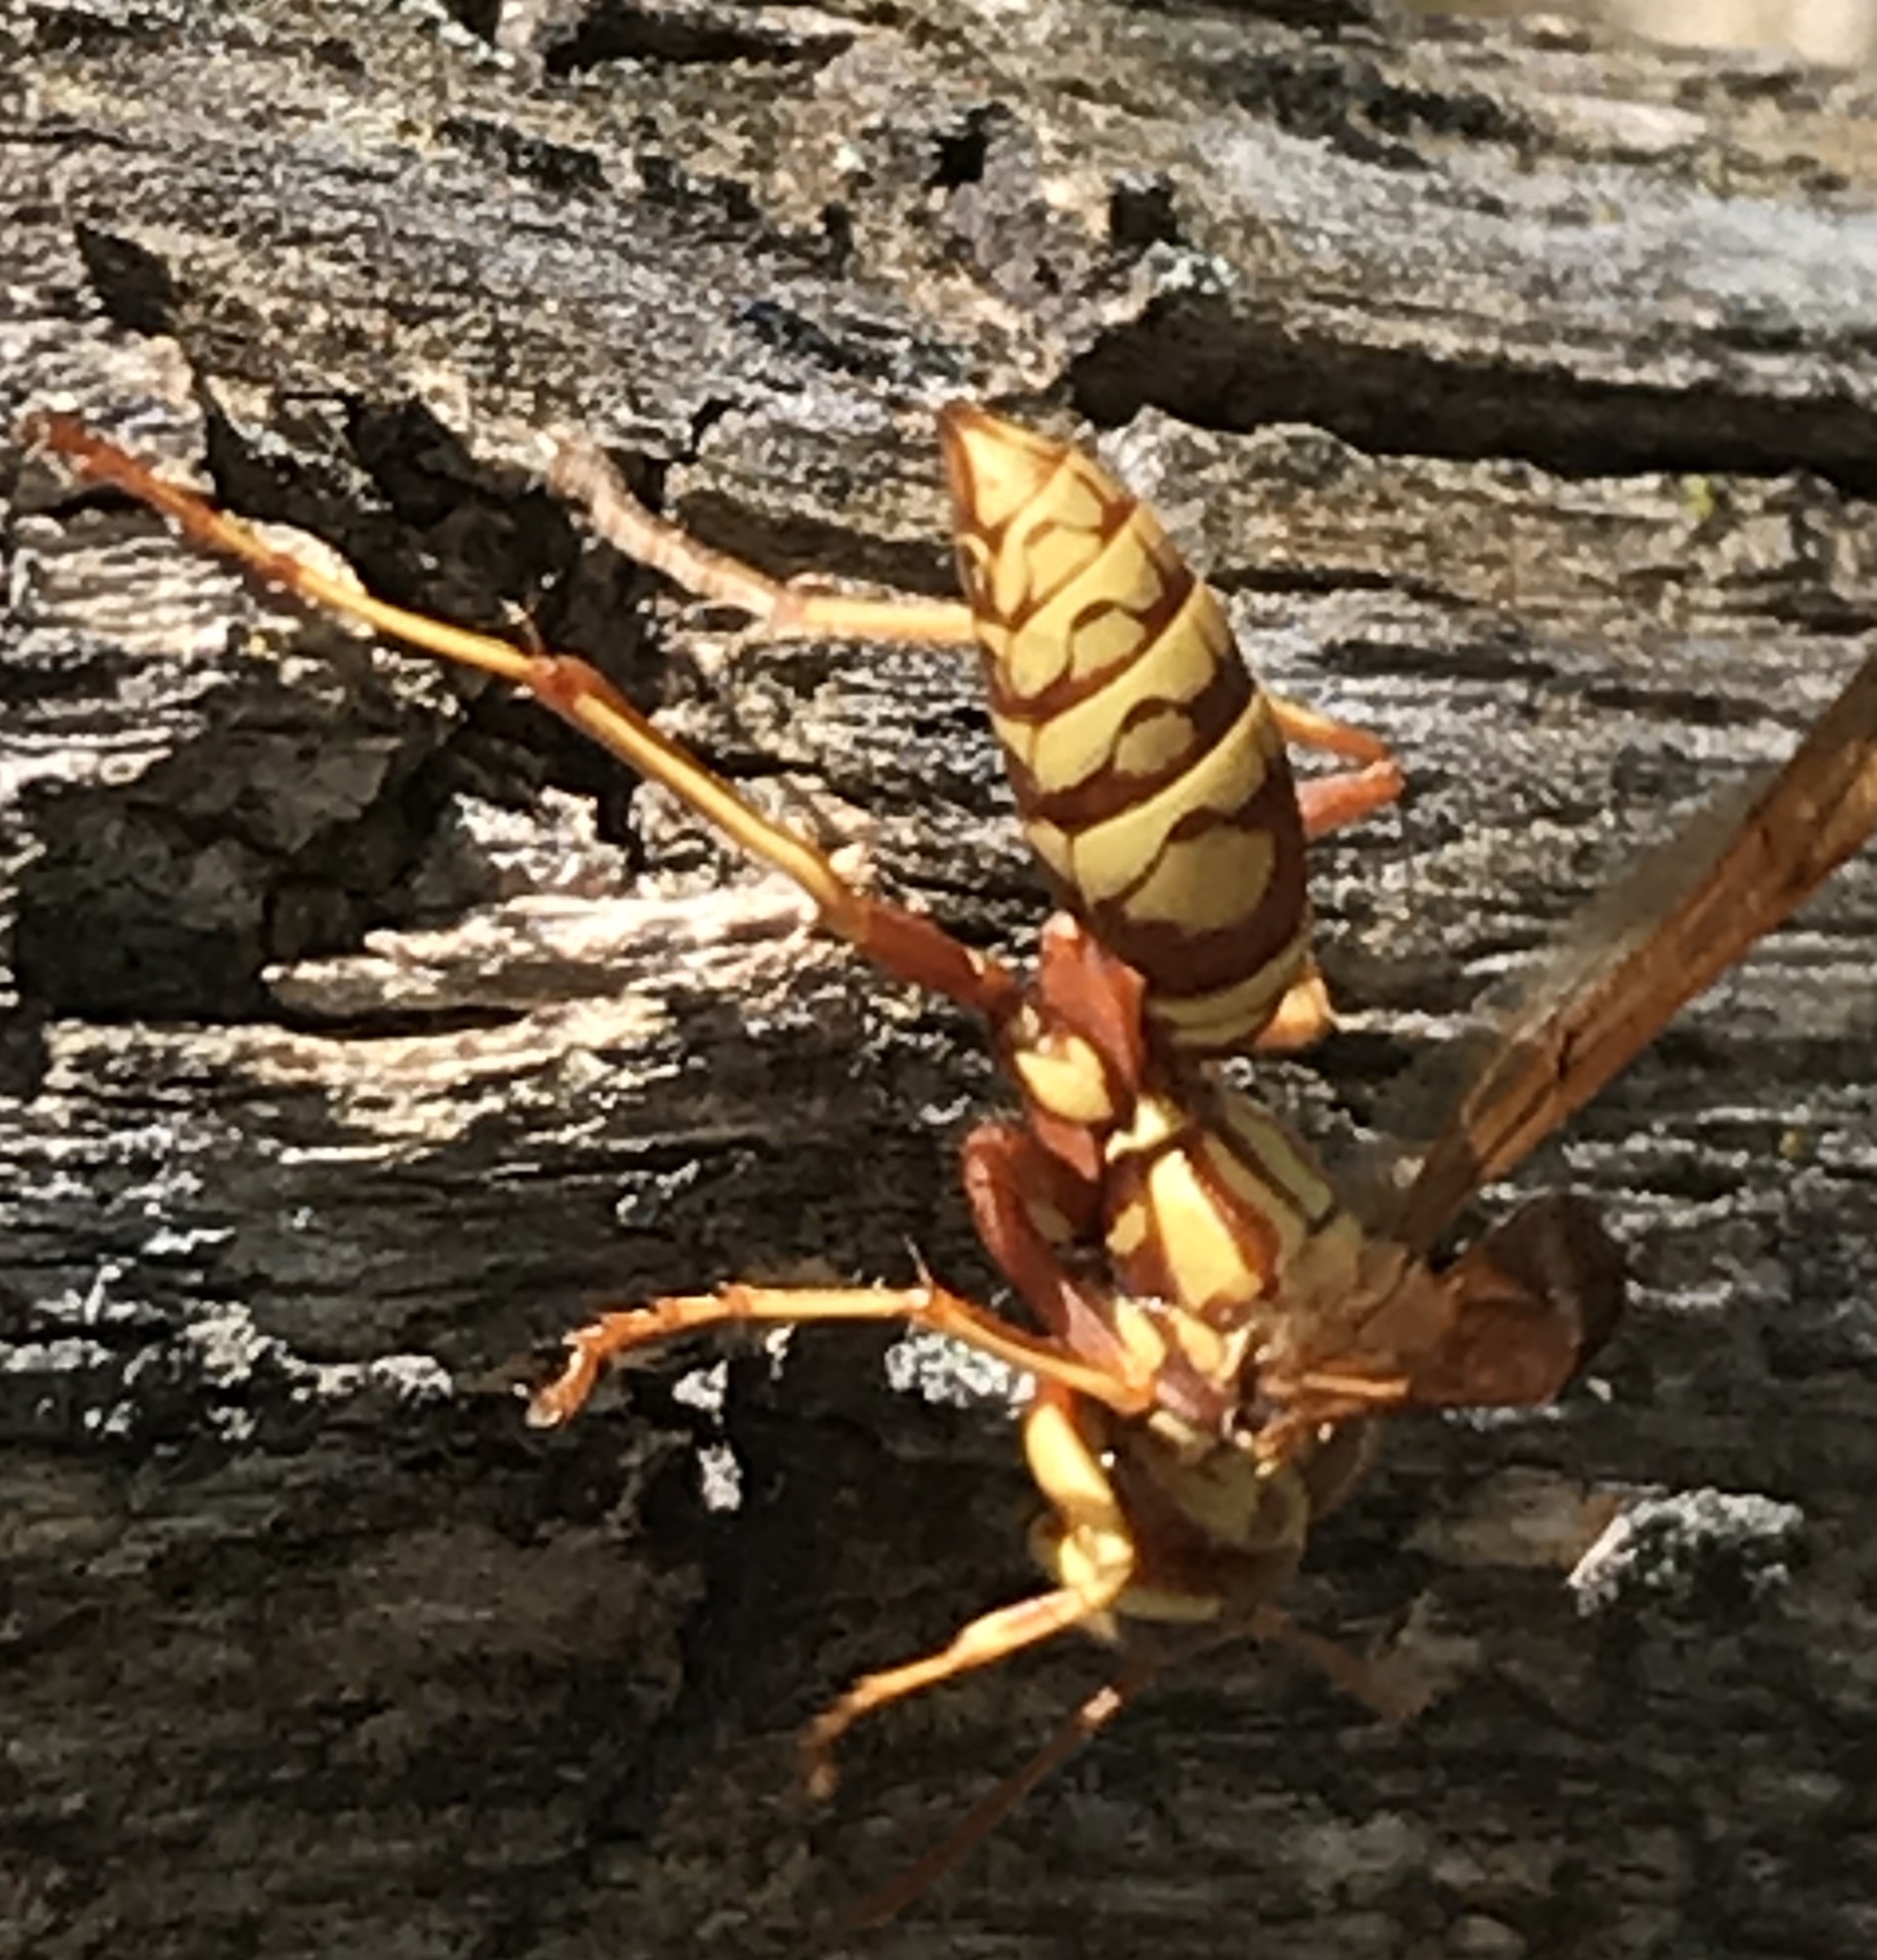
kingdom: Animalia
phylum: Arthropoda
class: Insecta
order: Hymenoptera
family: Eumenidae
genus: Polistes
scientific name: Polistes apachus
